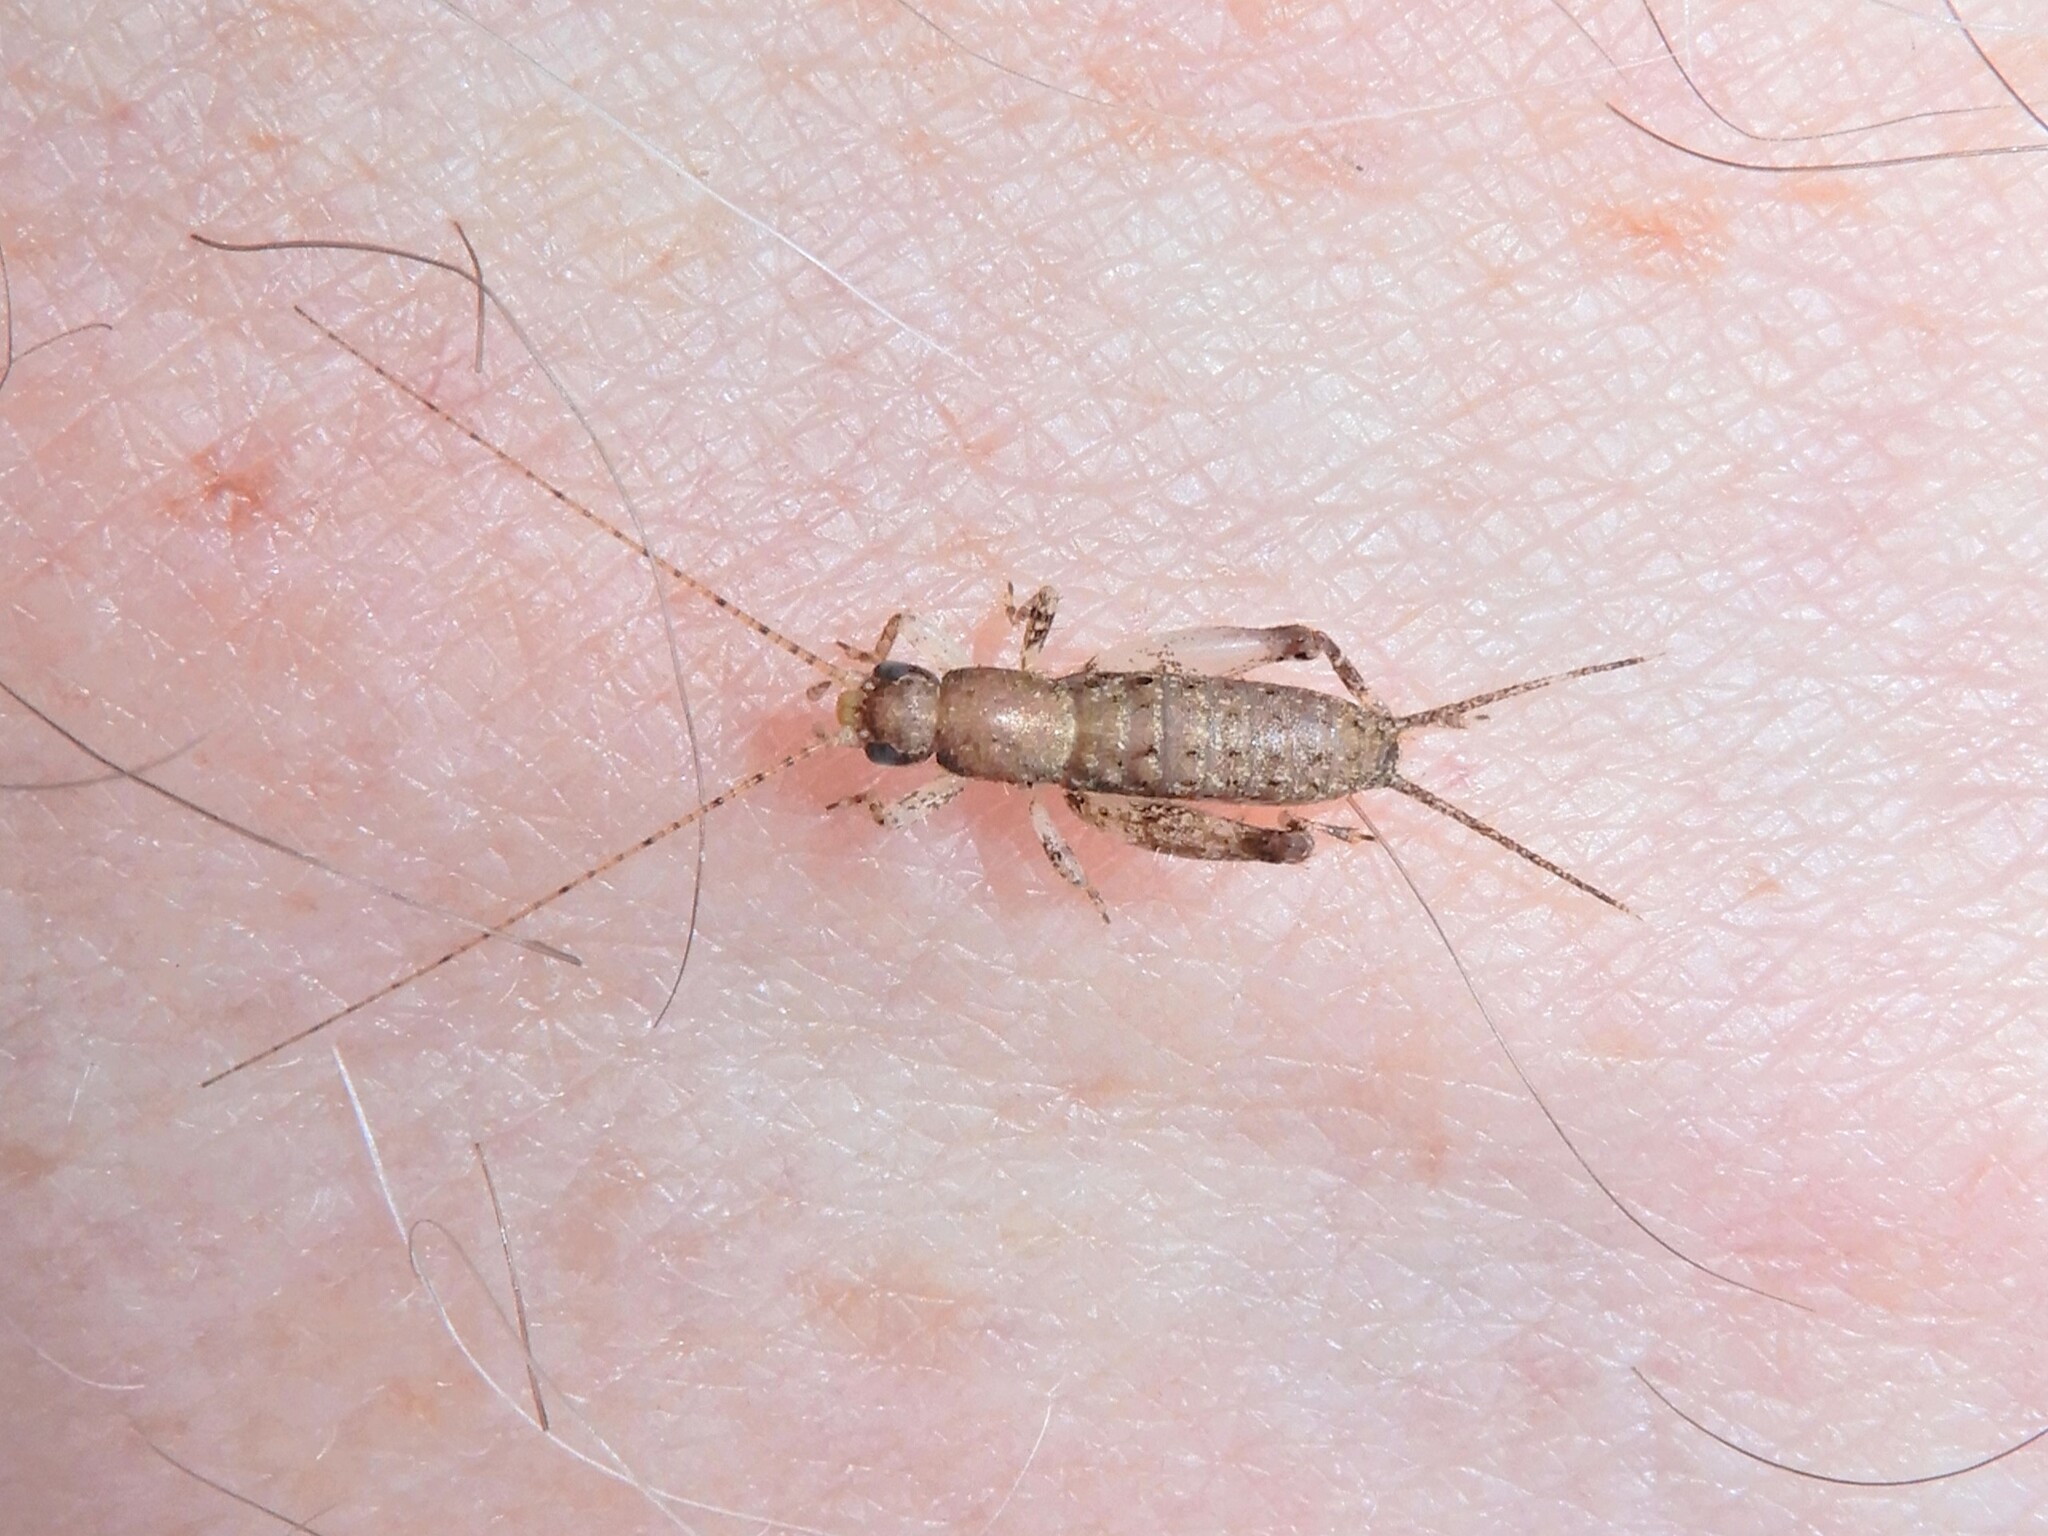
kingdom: Animalia
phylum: Arthropoda
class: Insecta
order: Orthoptera
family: Mogoplistidae
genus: Ornebius
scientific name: Ornebius aperta
